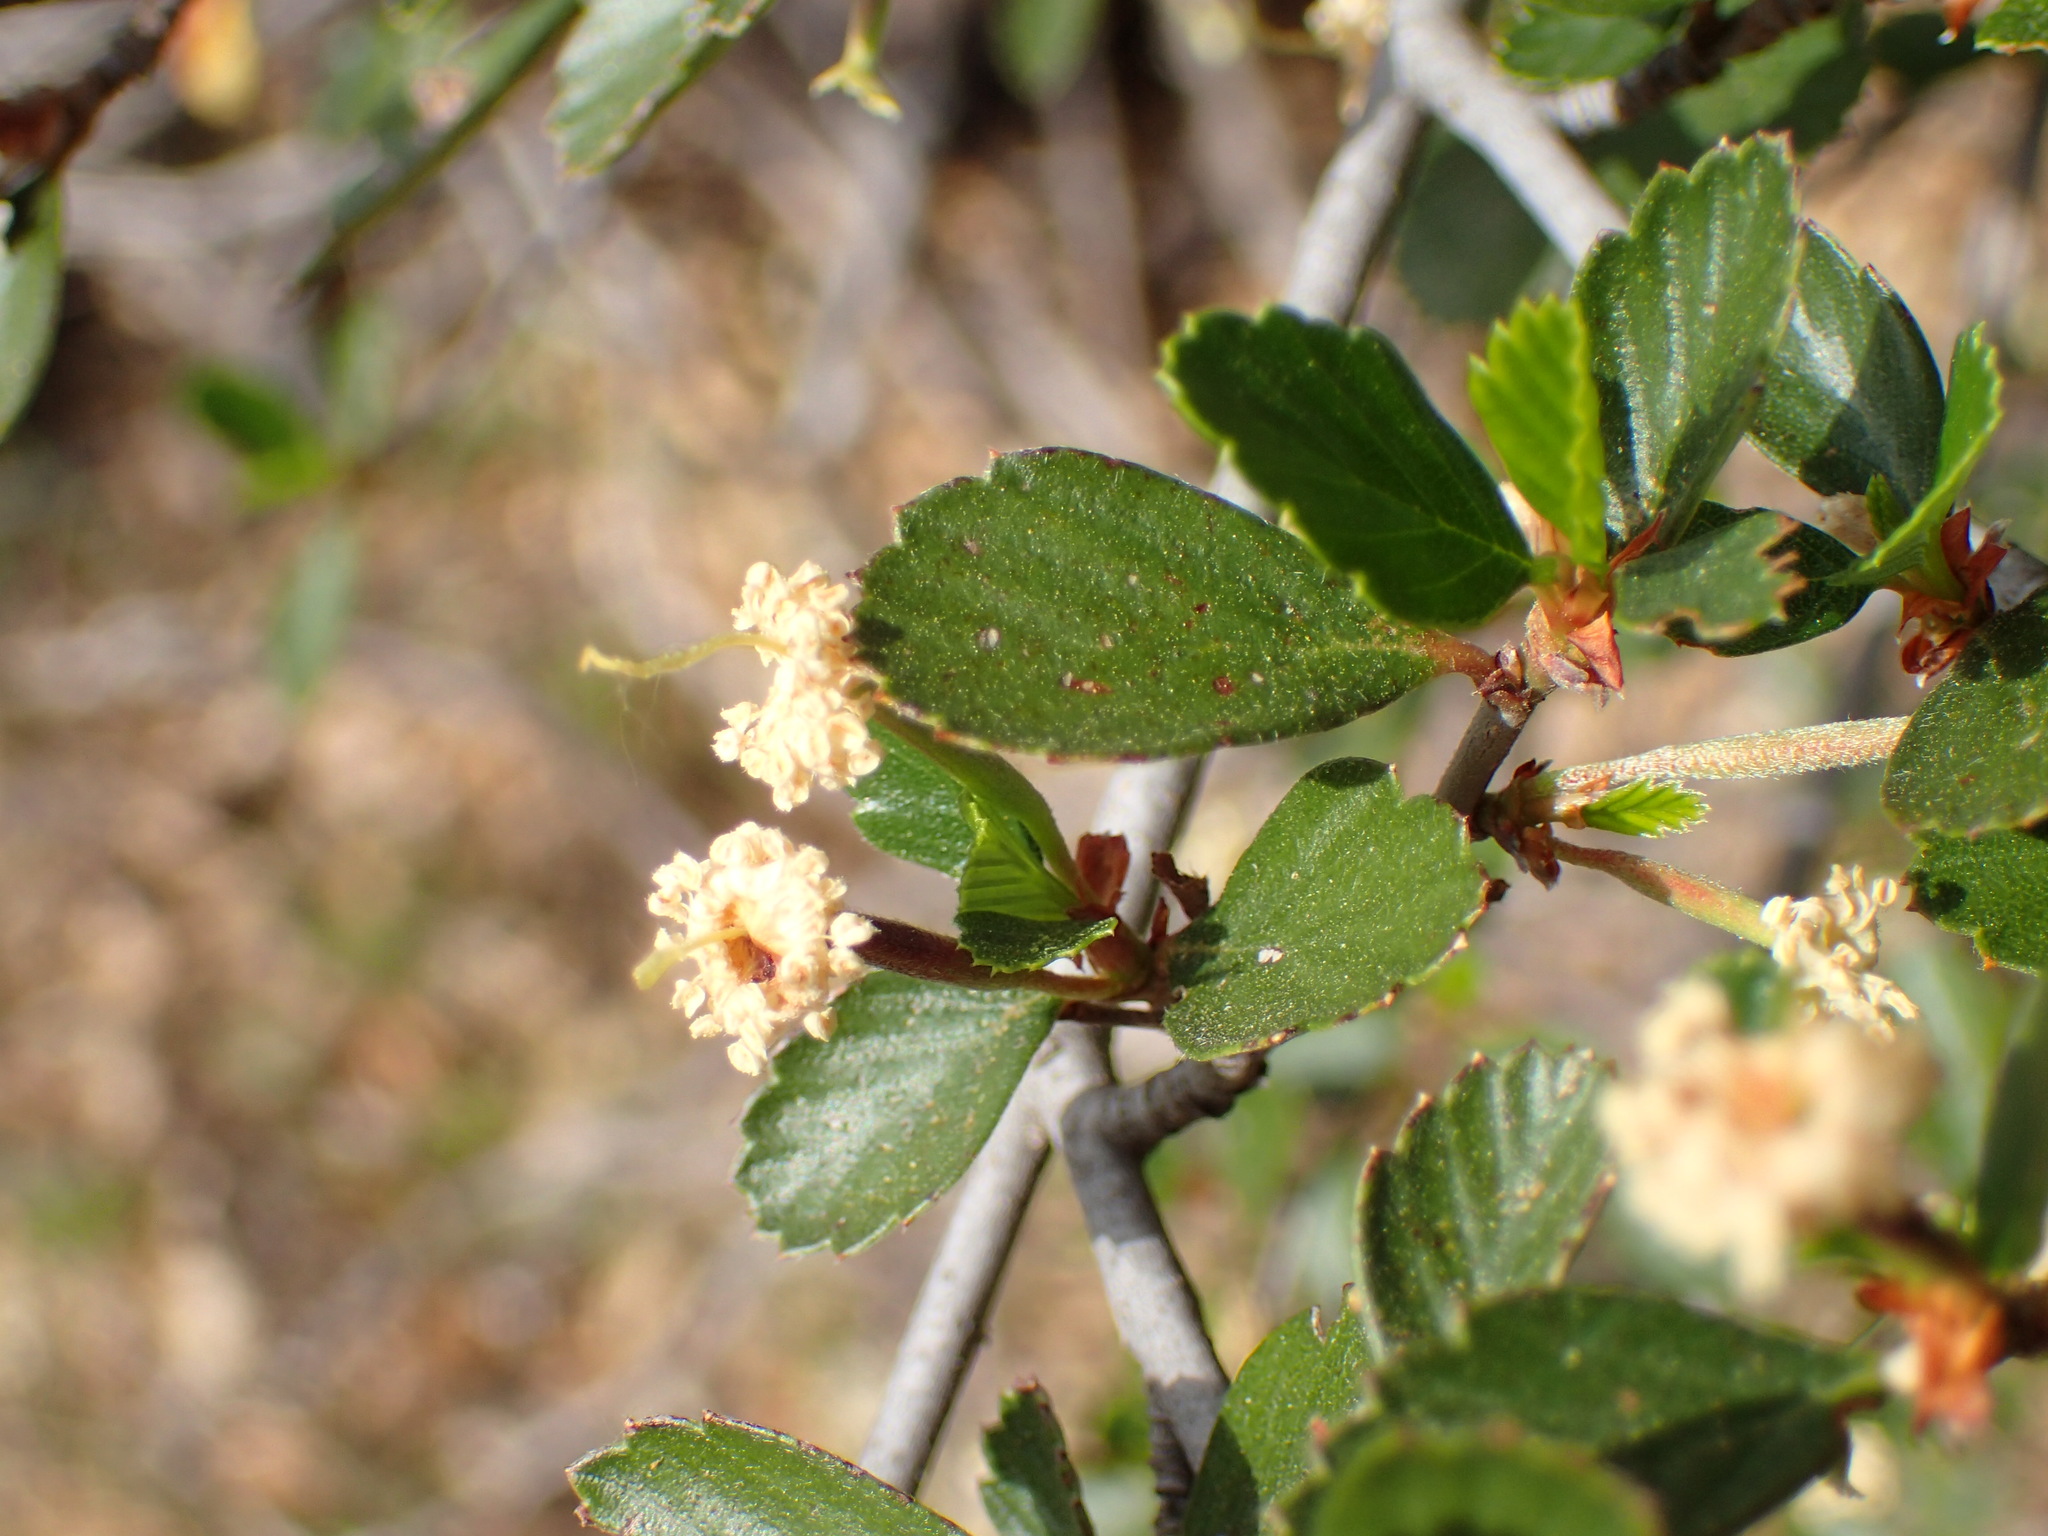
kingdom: Plantae
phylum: Tracheophyta
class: Magnoliopsida
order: Rosales
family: Rosaceae
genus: Cercocarpus
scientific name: Cercocarpus betuloides
